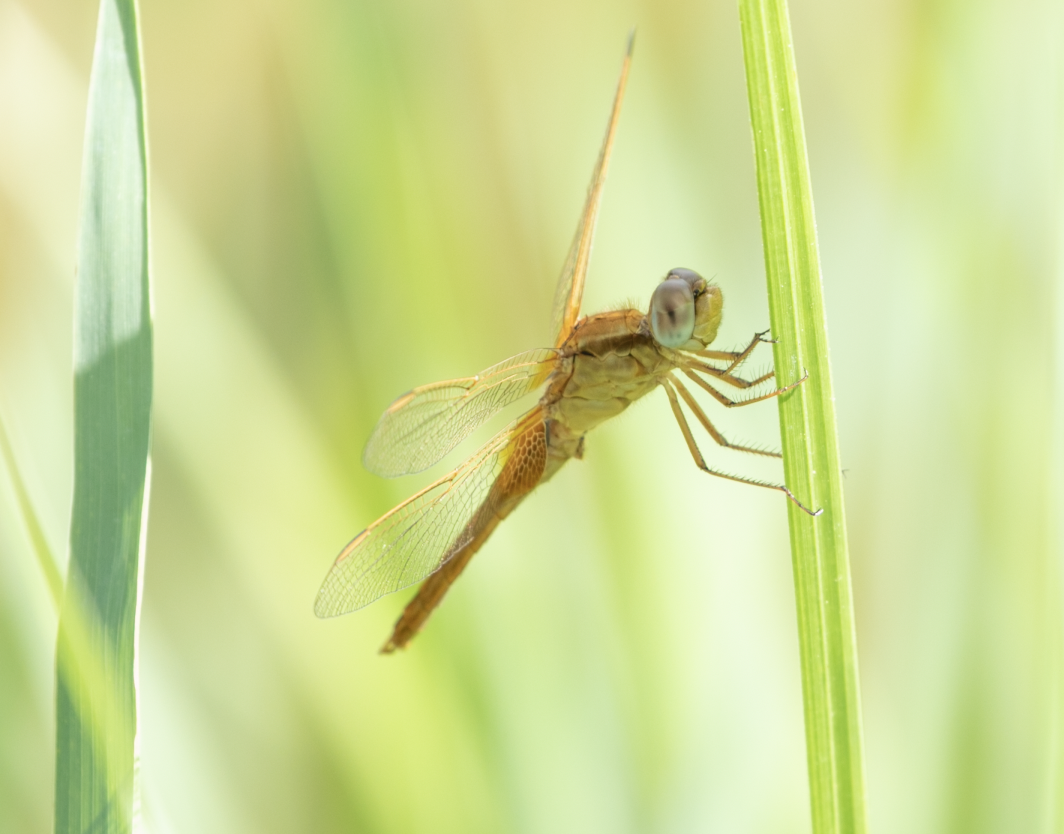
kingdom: Animalia
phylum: Arthropoda
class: Insecta
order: Odonata
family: Libellulidae
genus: Crocothemis
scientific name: Crocothemis erythraea
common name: Scarlet dragonfly
